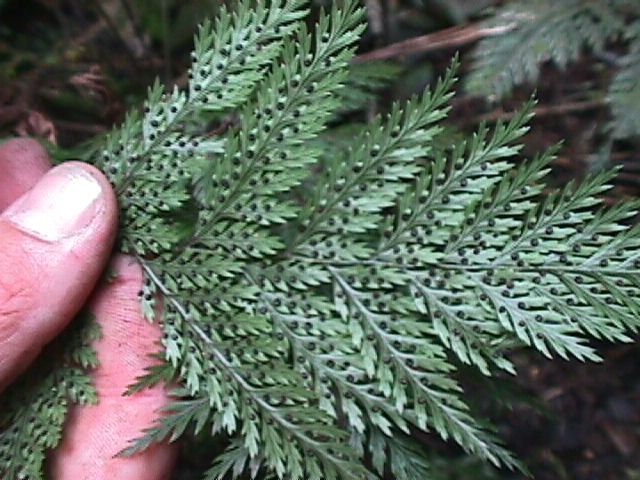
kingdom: Plantae
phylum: Tracheophyta
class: Polypodiopsida
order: Polypodiales
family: Dryopteridaceae
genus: Lastreopsis
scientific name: Lastreopsis hispida
